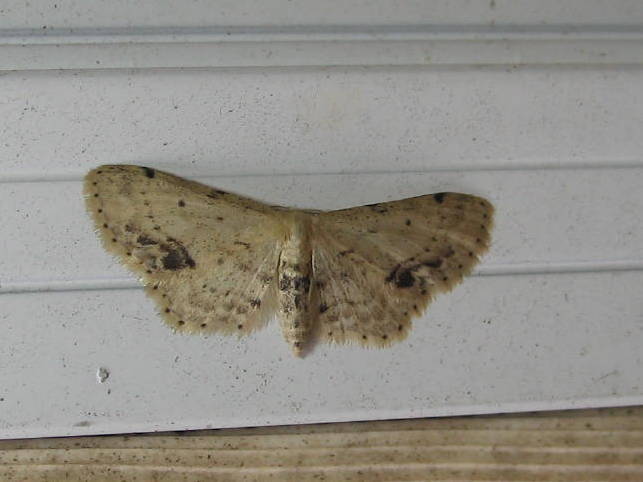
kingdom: Animalia
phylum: Arthropoda
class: Insecta
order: Lepidoptera
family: Geometridae
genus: Idaea
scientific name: Idaea dimidiata
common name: Single-dotted wave
